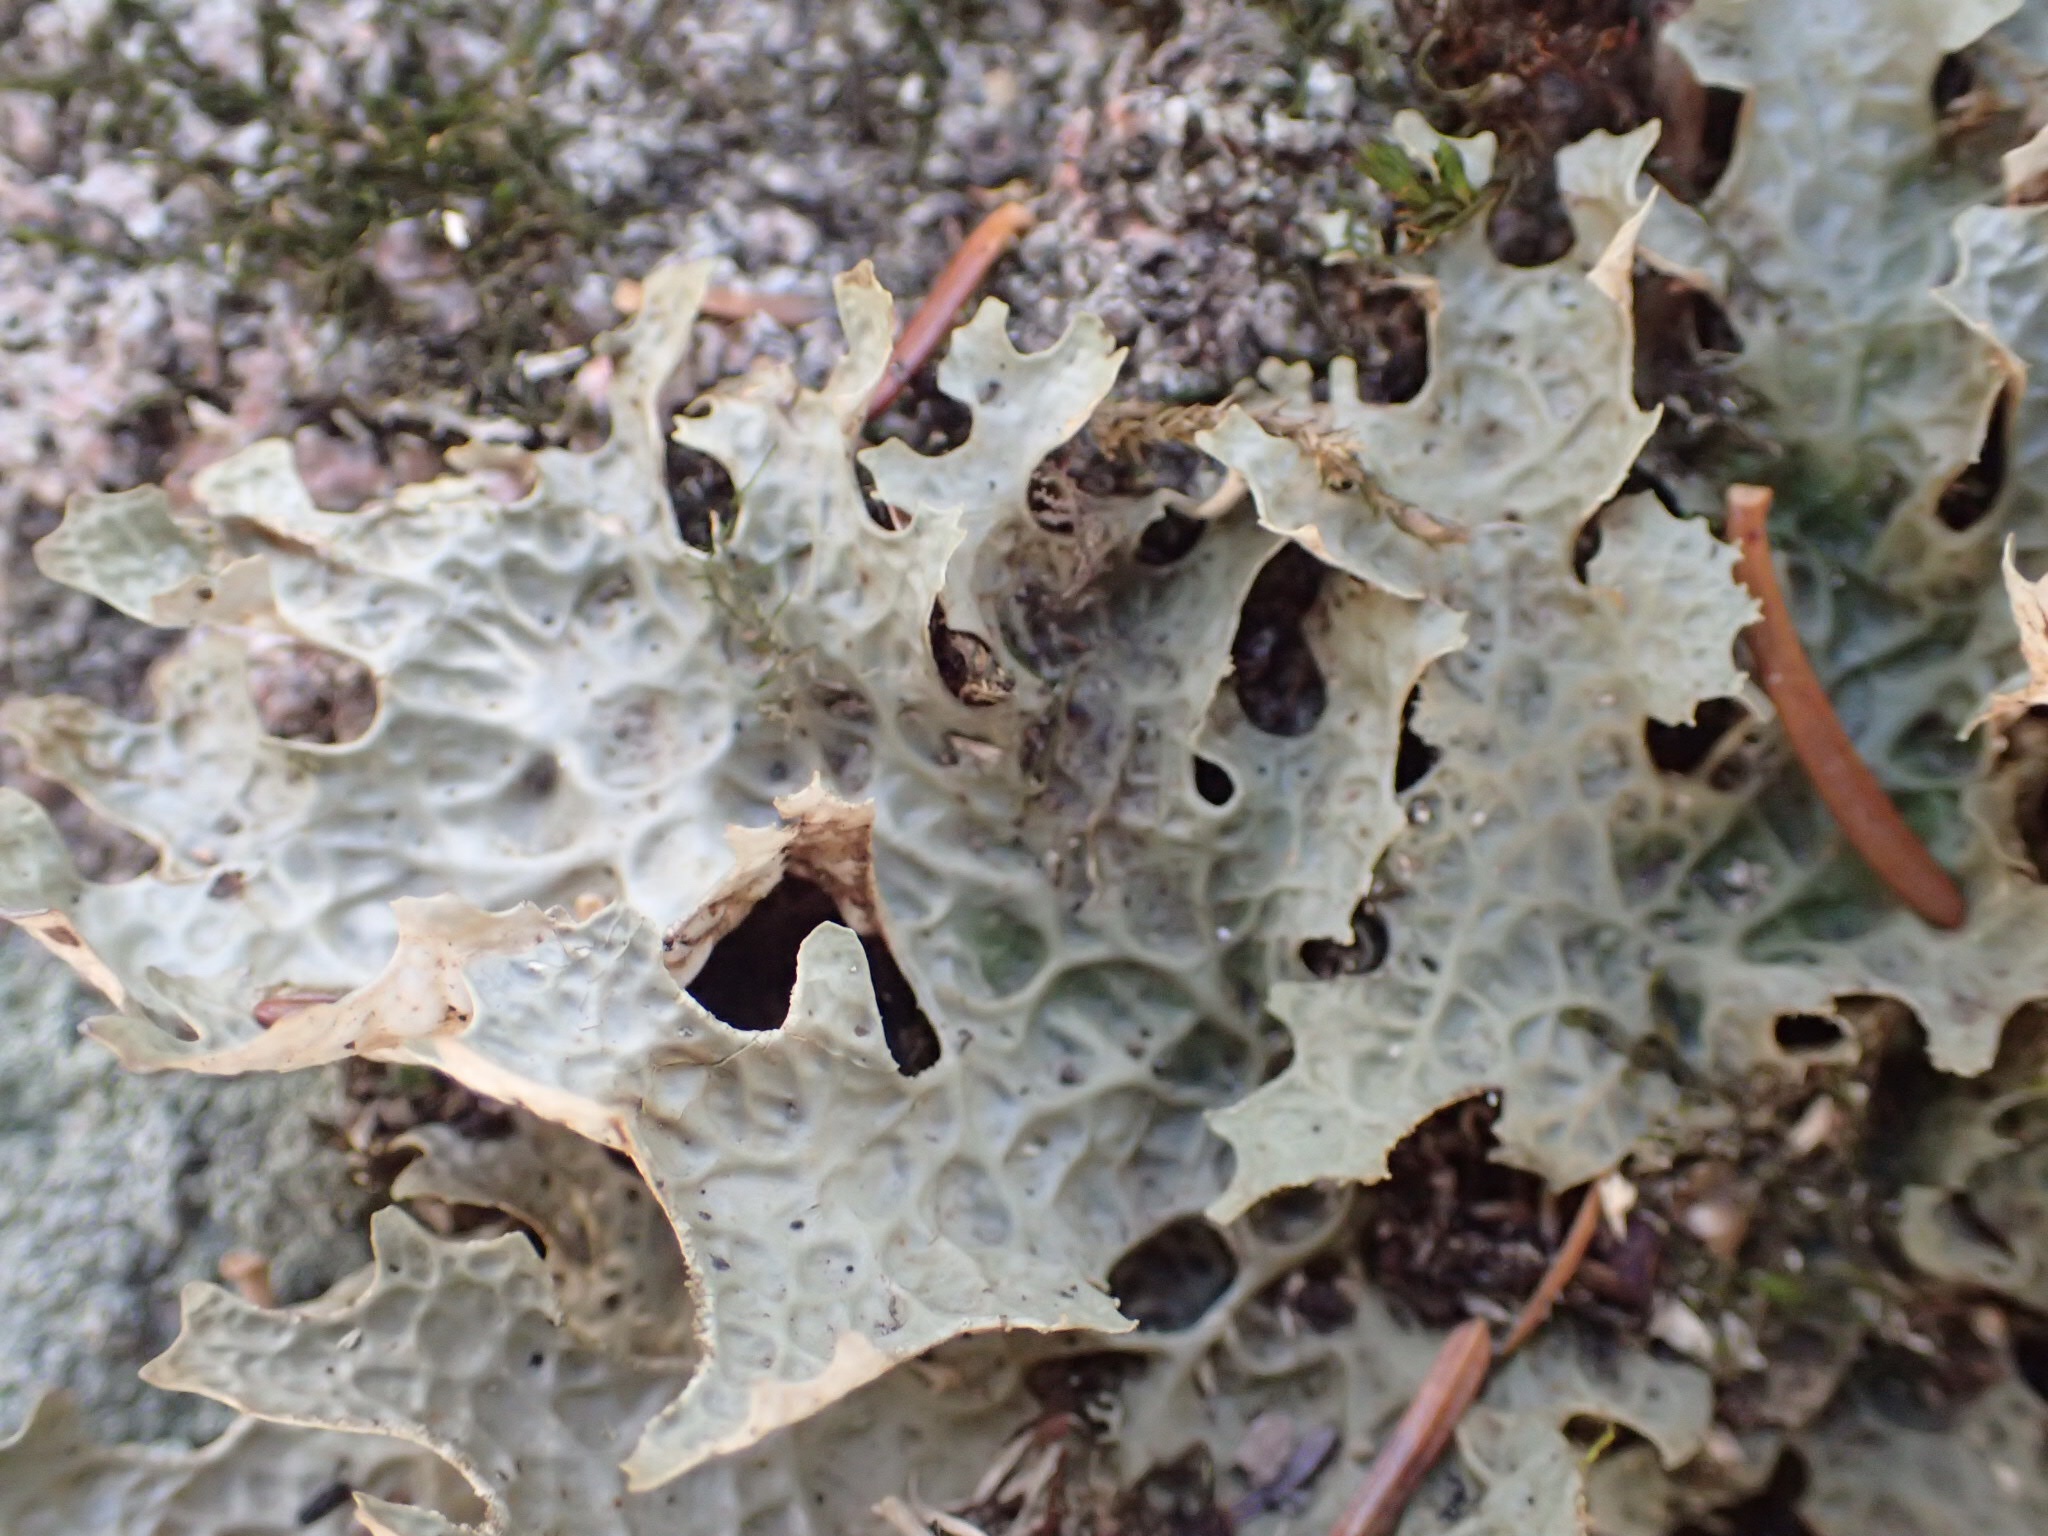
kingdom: Fungi
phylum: Ascomycota
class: Lecanoromycetes
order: Peltigerales
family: Lobariaceae
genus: Lobaria
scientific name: Lobaria pulmonaria
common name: Lungwort
